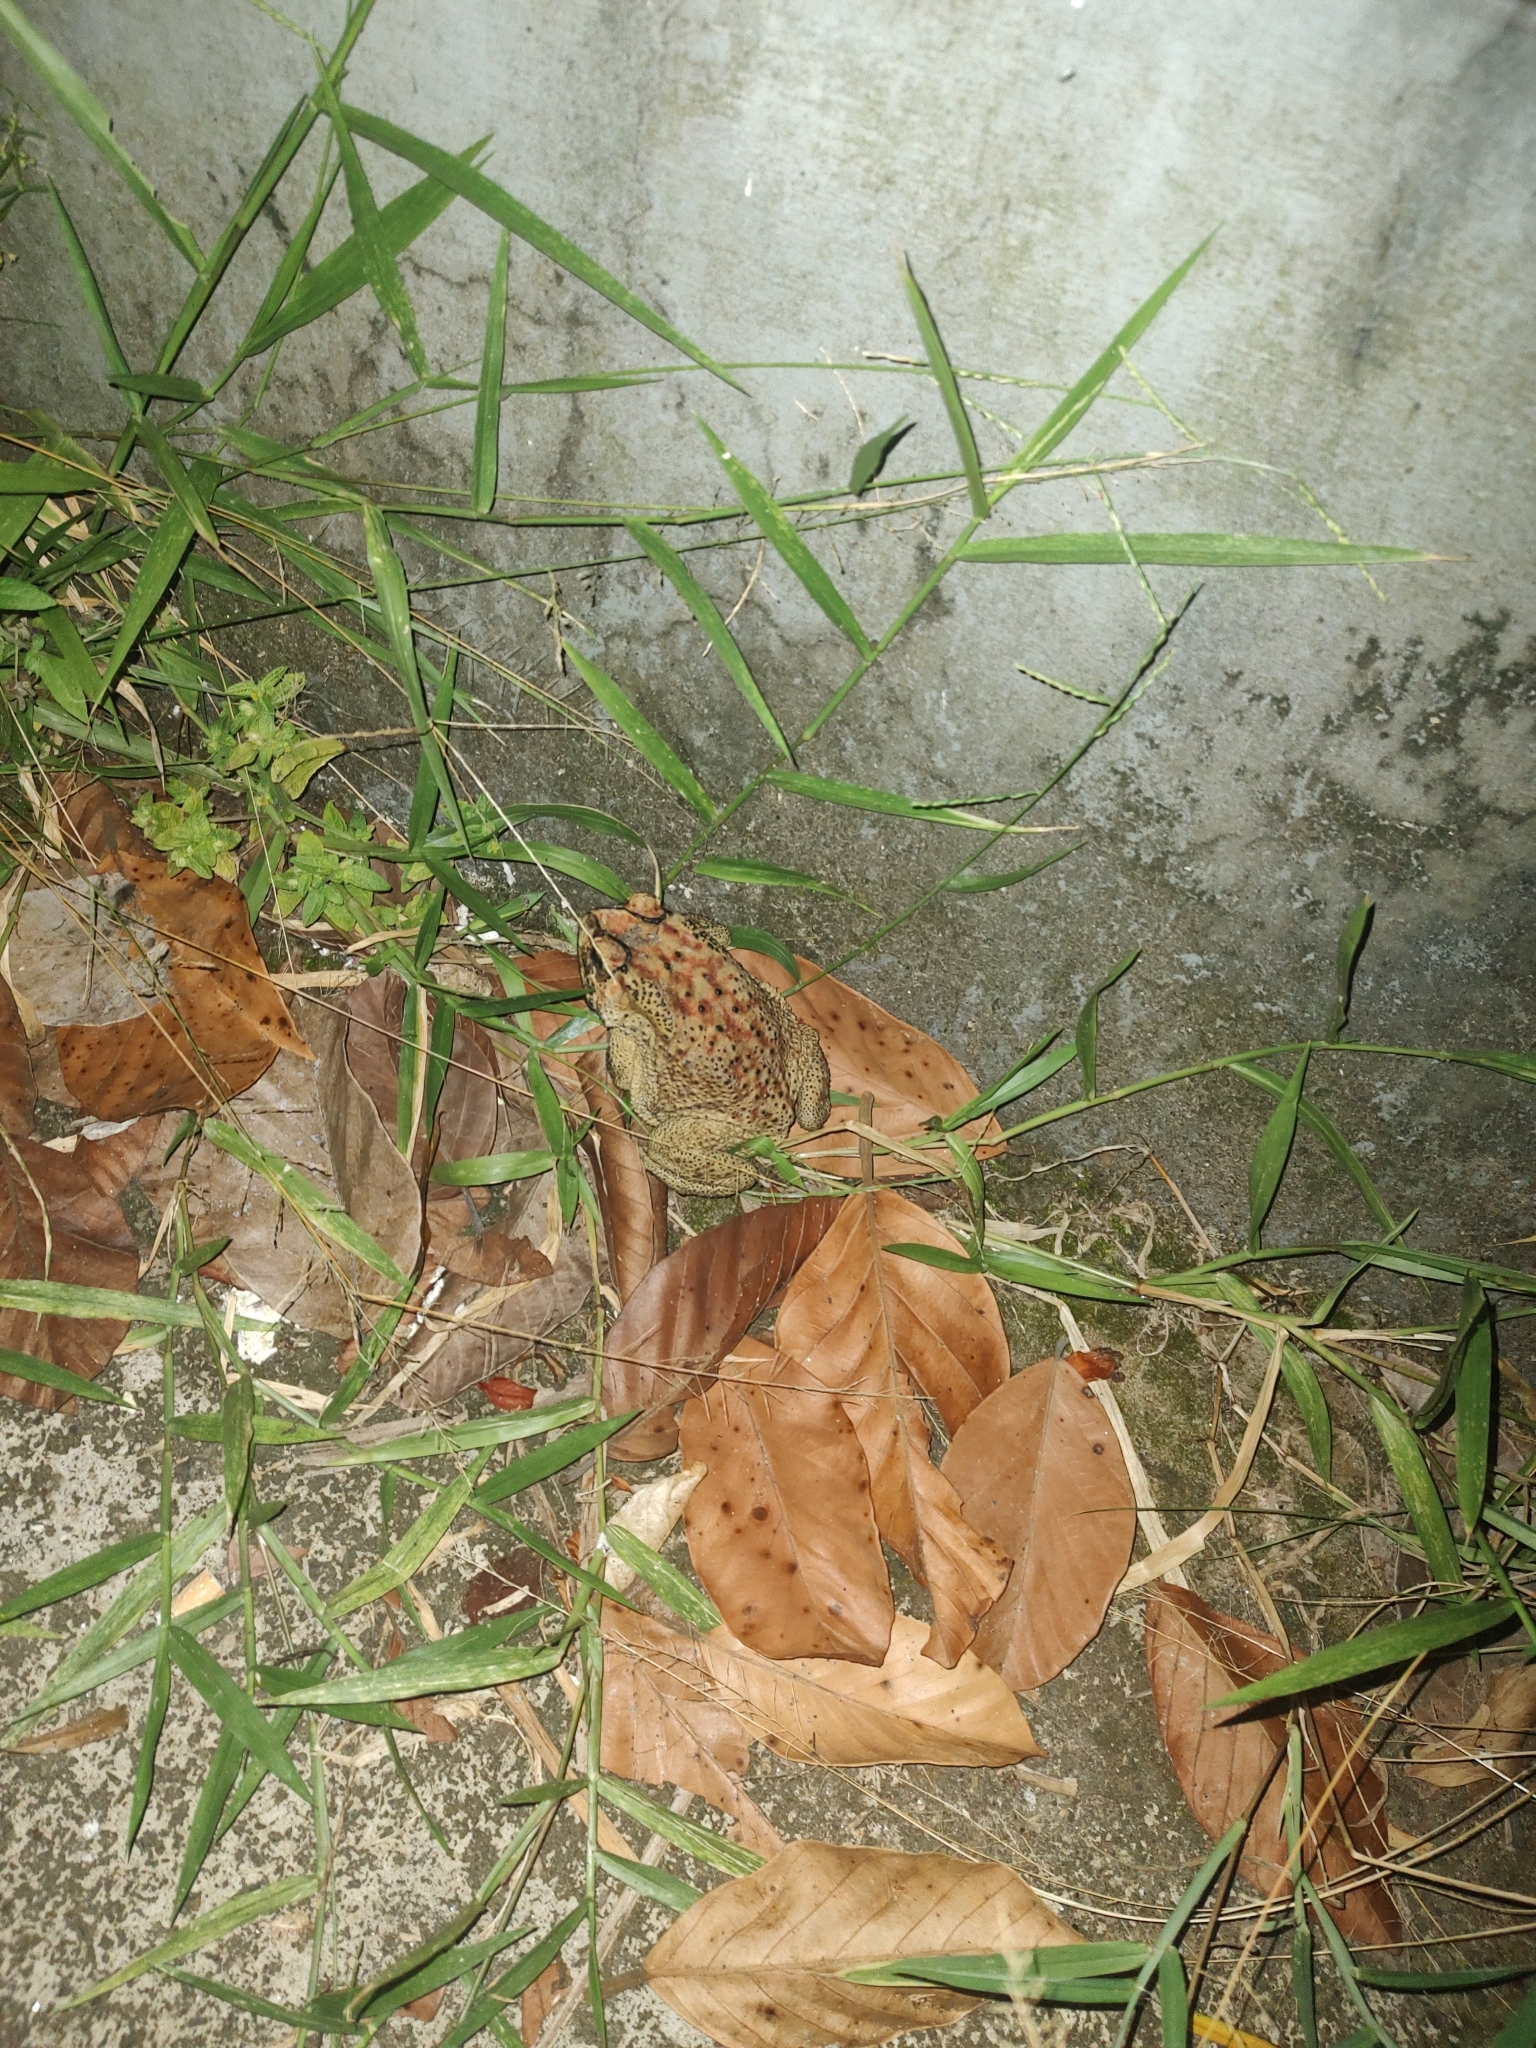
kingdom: Animalia
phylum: Chordata
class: Amphibia
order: Anura
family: Bufonidae
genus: Duttaphrynus
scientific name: Duttaphrynus melanostictus
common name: Common sunda toad
